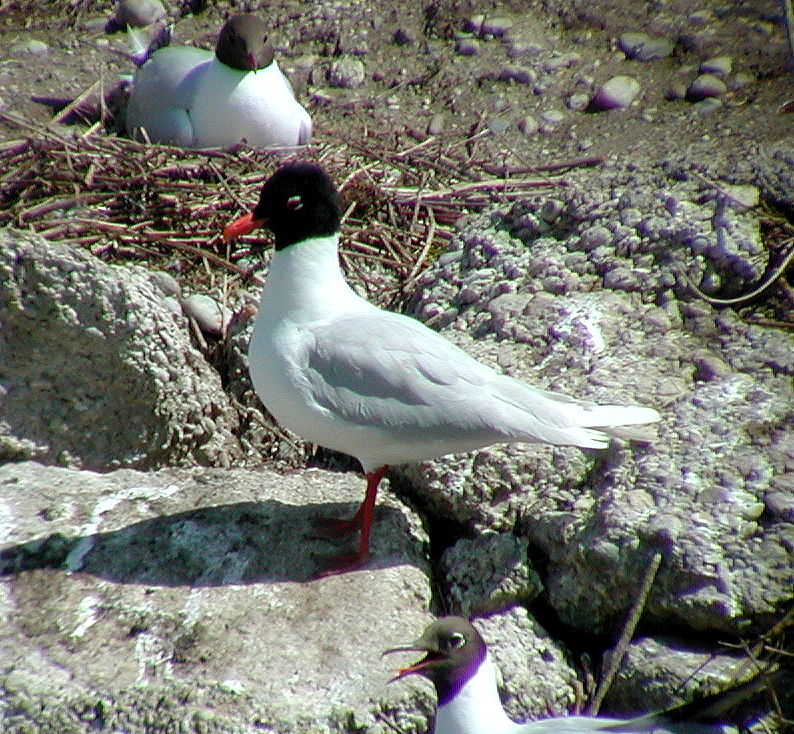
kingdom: Animalia
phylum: Chordata
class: Aves
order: Charadriiformes
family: Laridae
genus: Ichthyaetus
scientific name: Ichthyaetus melanocephalus
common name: Mediterranean gull
